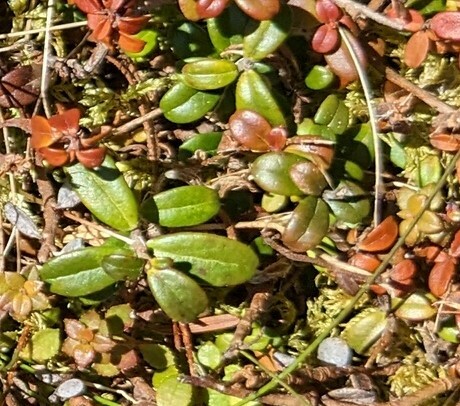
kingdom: Plantae
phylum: Tracheophyta
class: Magnoliopsida
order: Ericales
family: Ericaceae
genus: Vaccinium
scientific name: Vaccinium vitis-idaea
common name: Cowberry
